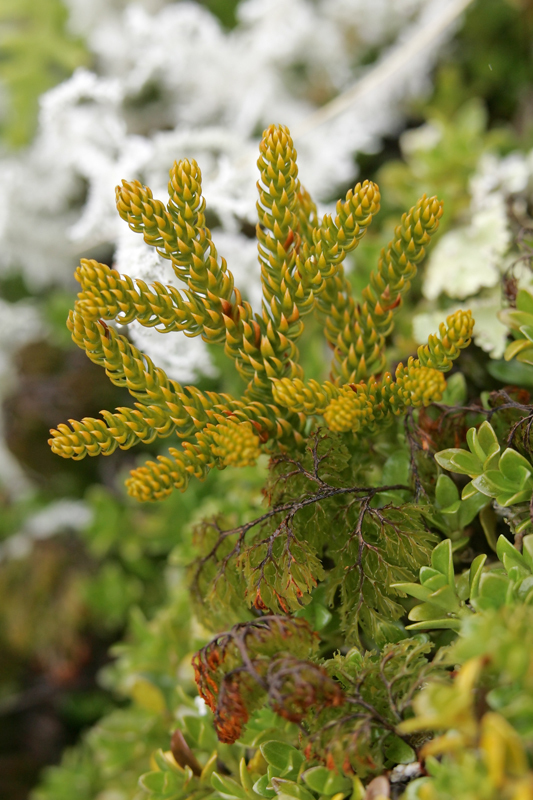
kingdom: Plantae
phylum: Tracheophyta
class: Lycopodiopsida
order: Lycopodiales
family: Lycopodiaceae
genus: Austrolycopodium
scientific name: Austrolycopodium fastigiatum
